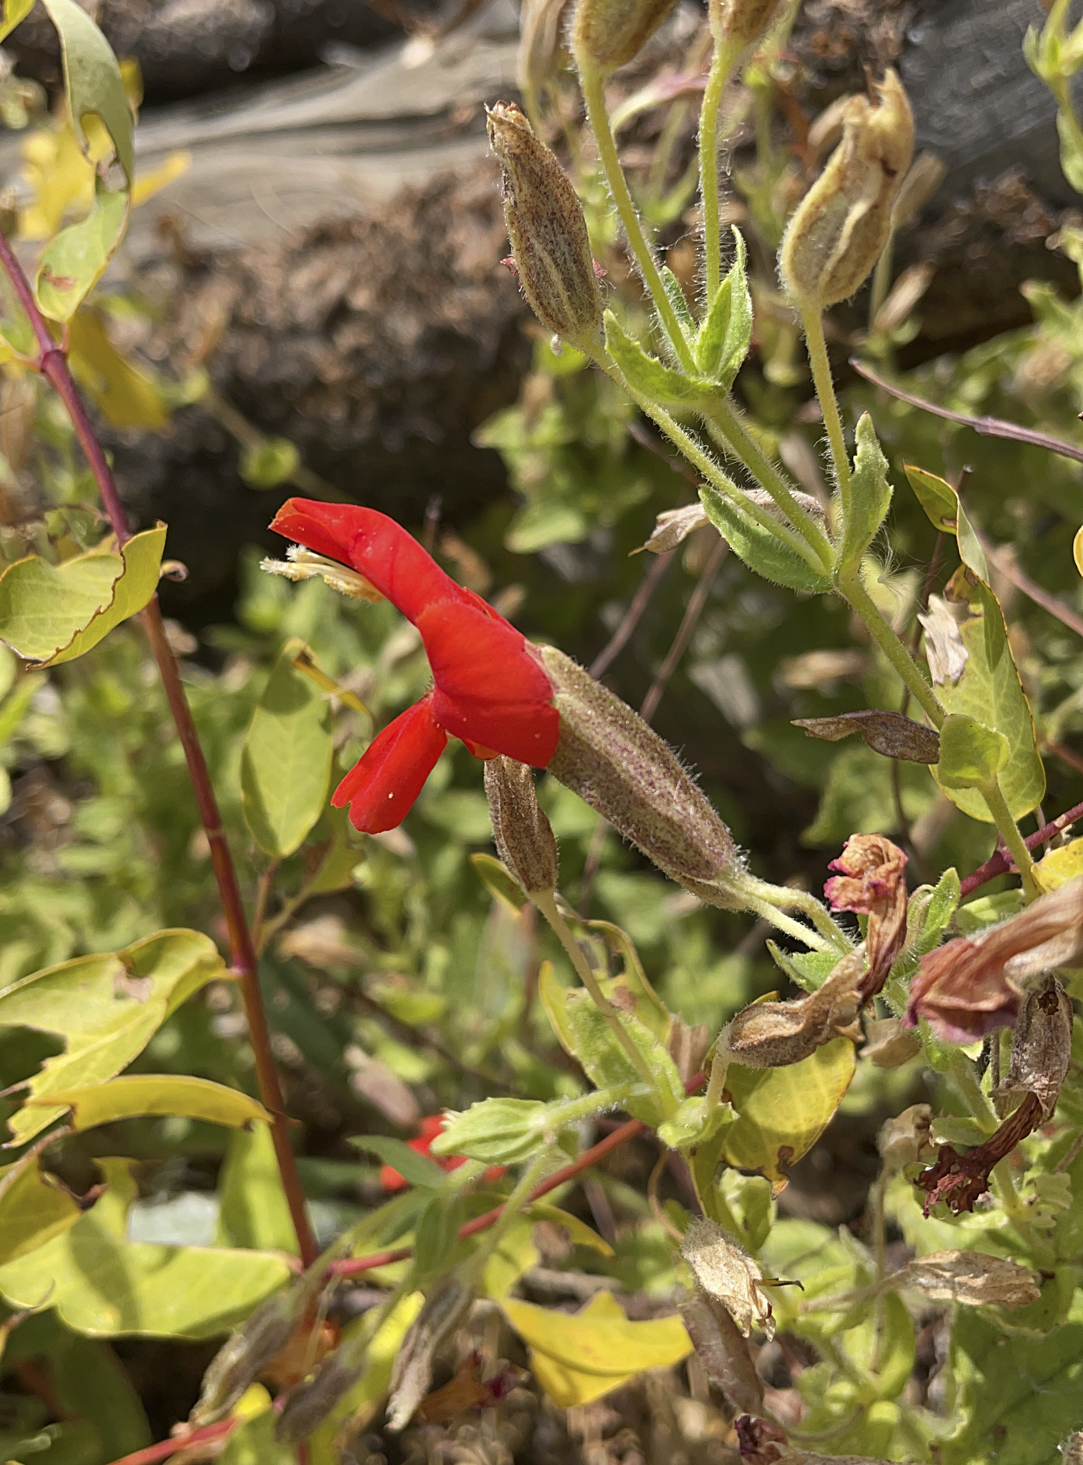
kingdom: Plantae
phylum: Tracheophyta
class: Magnoliopsida
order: Lamiales
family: Phrymaceae
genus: Erythranthe
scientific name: Erythranthe cardinalis
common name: Scarlet monkey-flower
